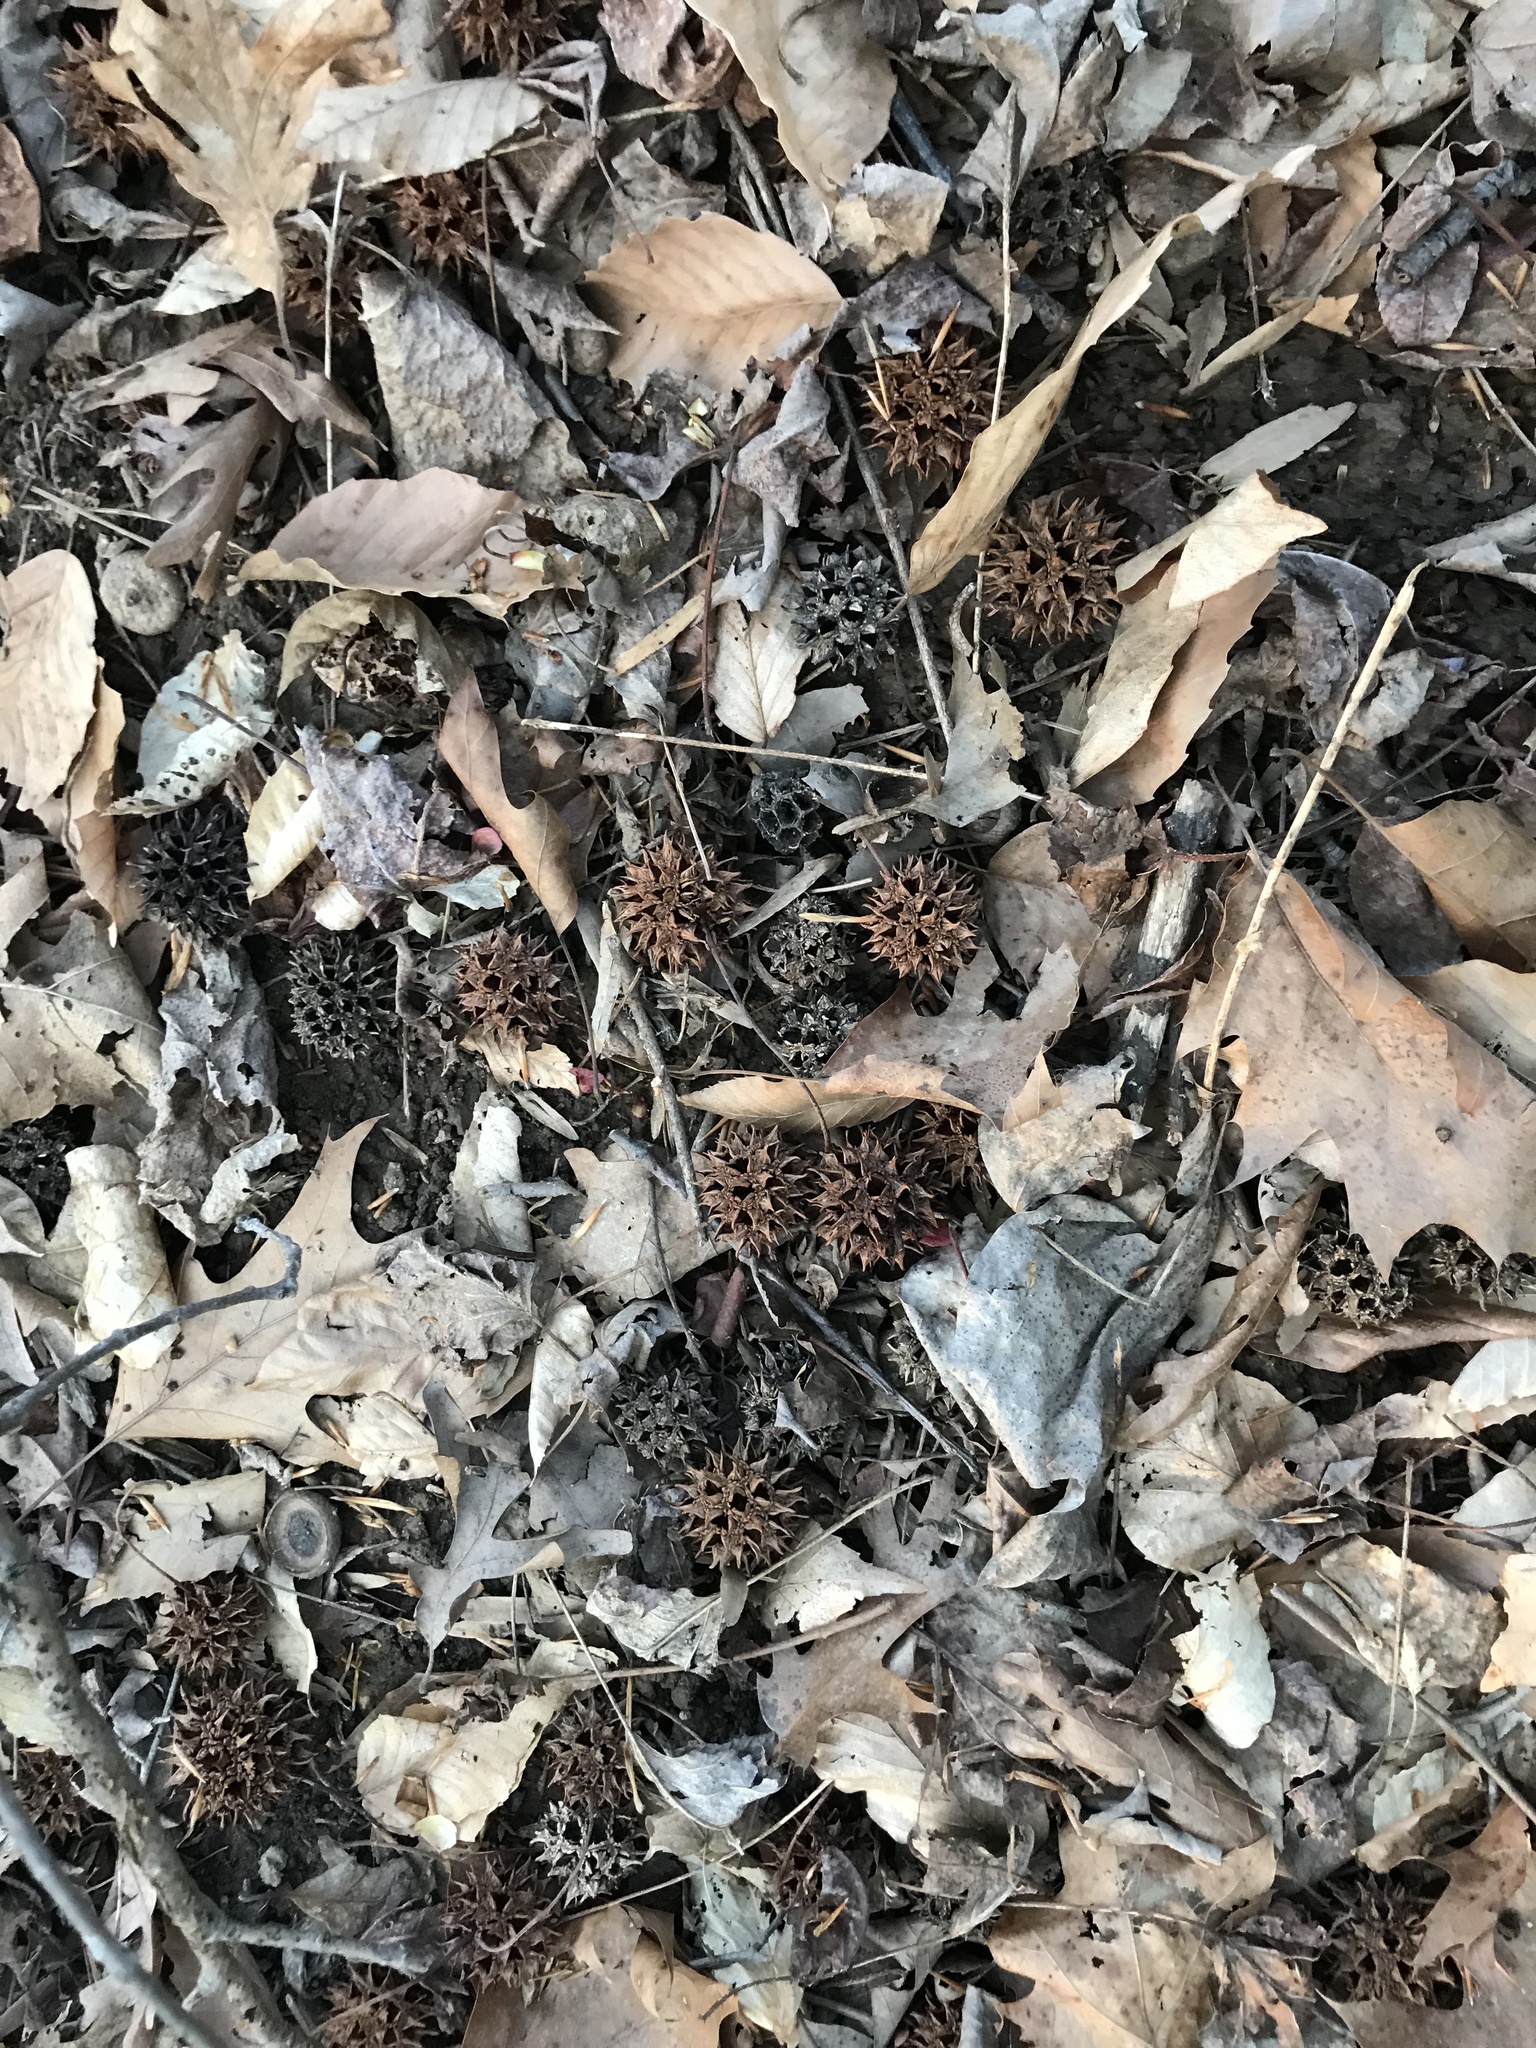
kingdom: Plantae
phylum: Tracheophyta
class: Magnoliopsida
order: Saxifragales
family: Altingiaceae
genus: Liquidambar
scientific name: Liquidambar styraciflua
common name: Sweet gum
